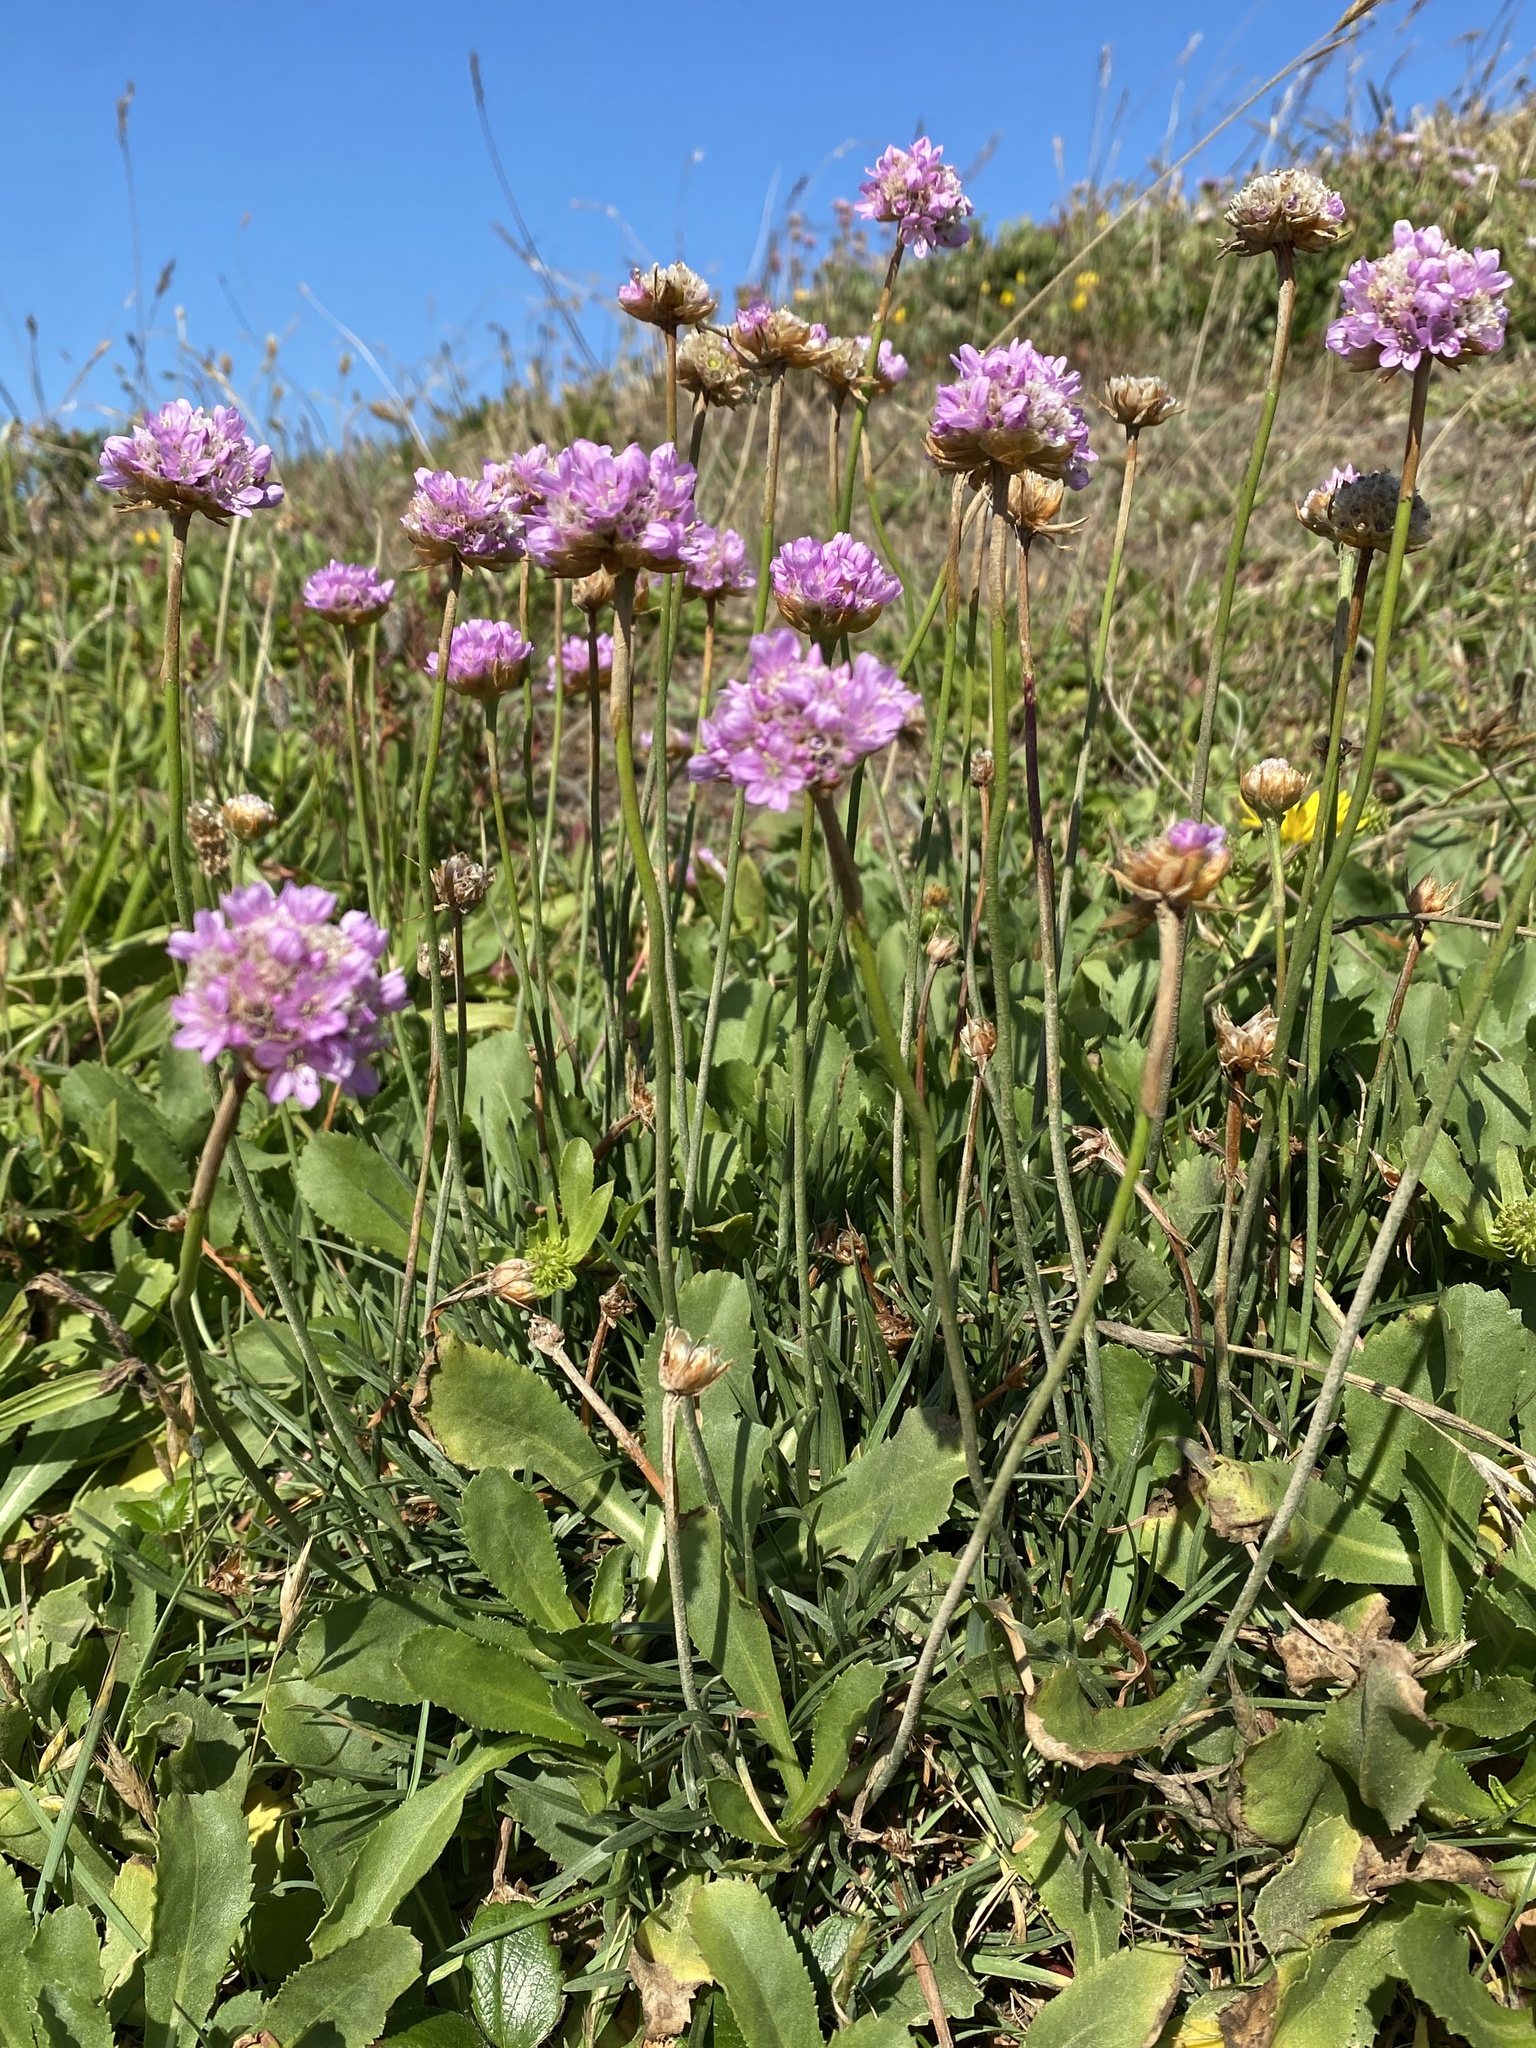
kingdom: Plantae
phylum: Tracheophyta
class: Magnoliopsida
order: Caryophyllales
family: Plumbaginaceae
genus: Armeria
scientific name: Armeria maritima
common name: Thrift
